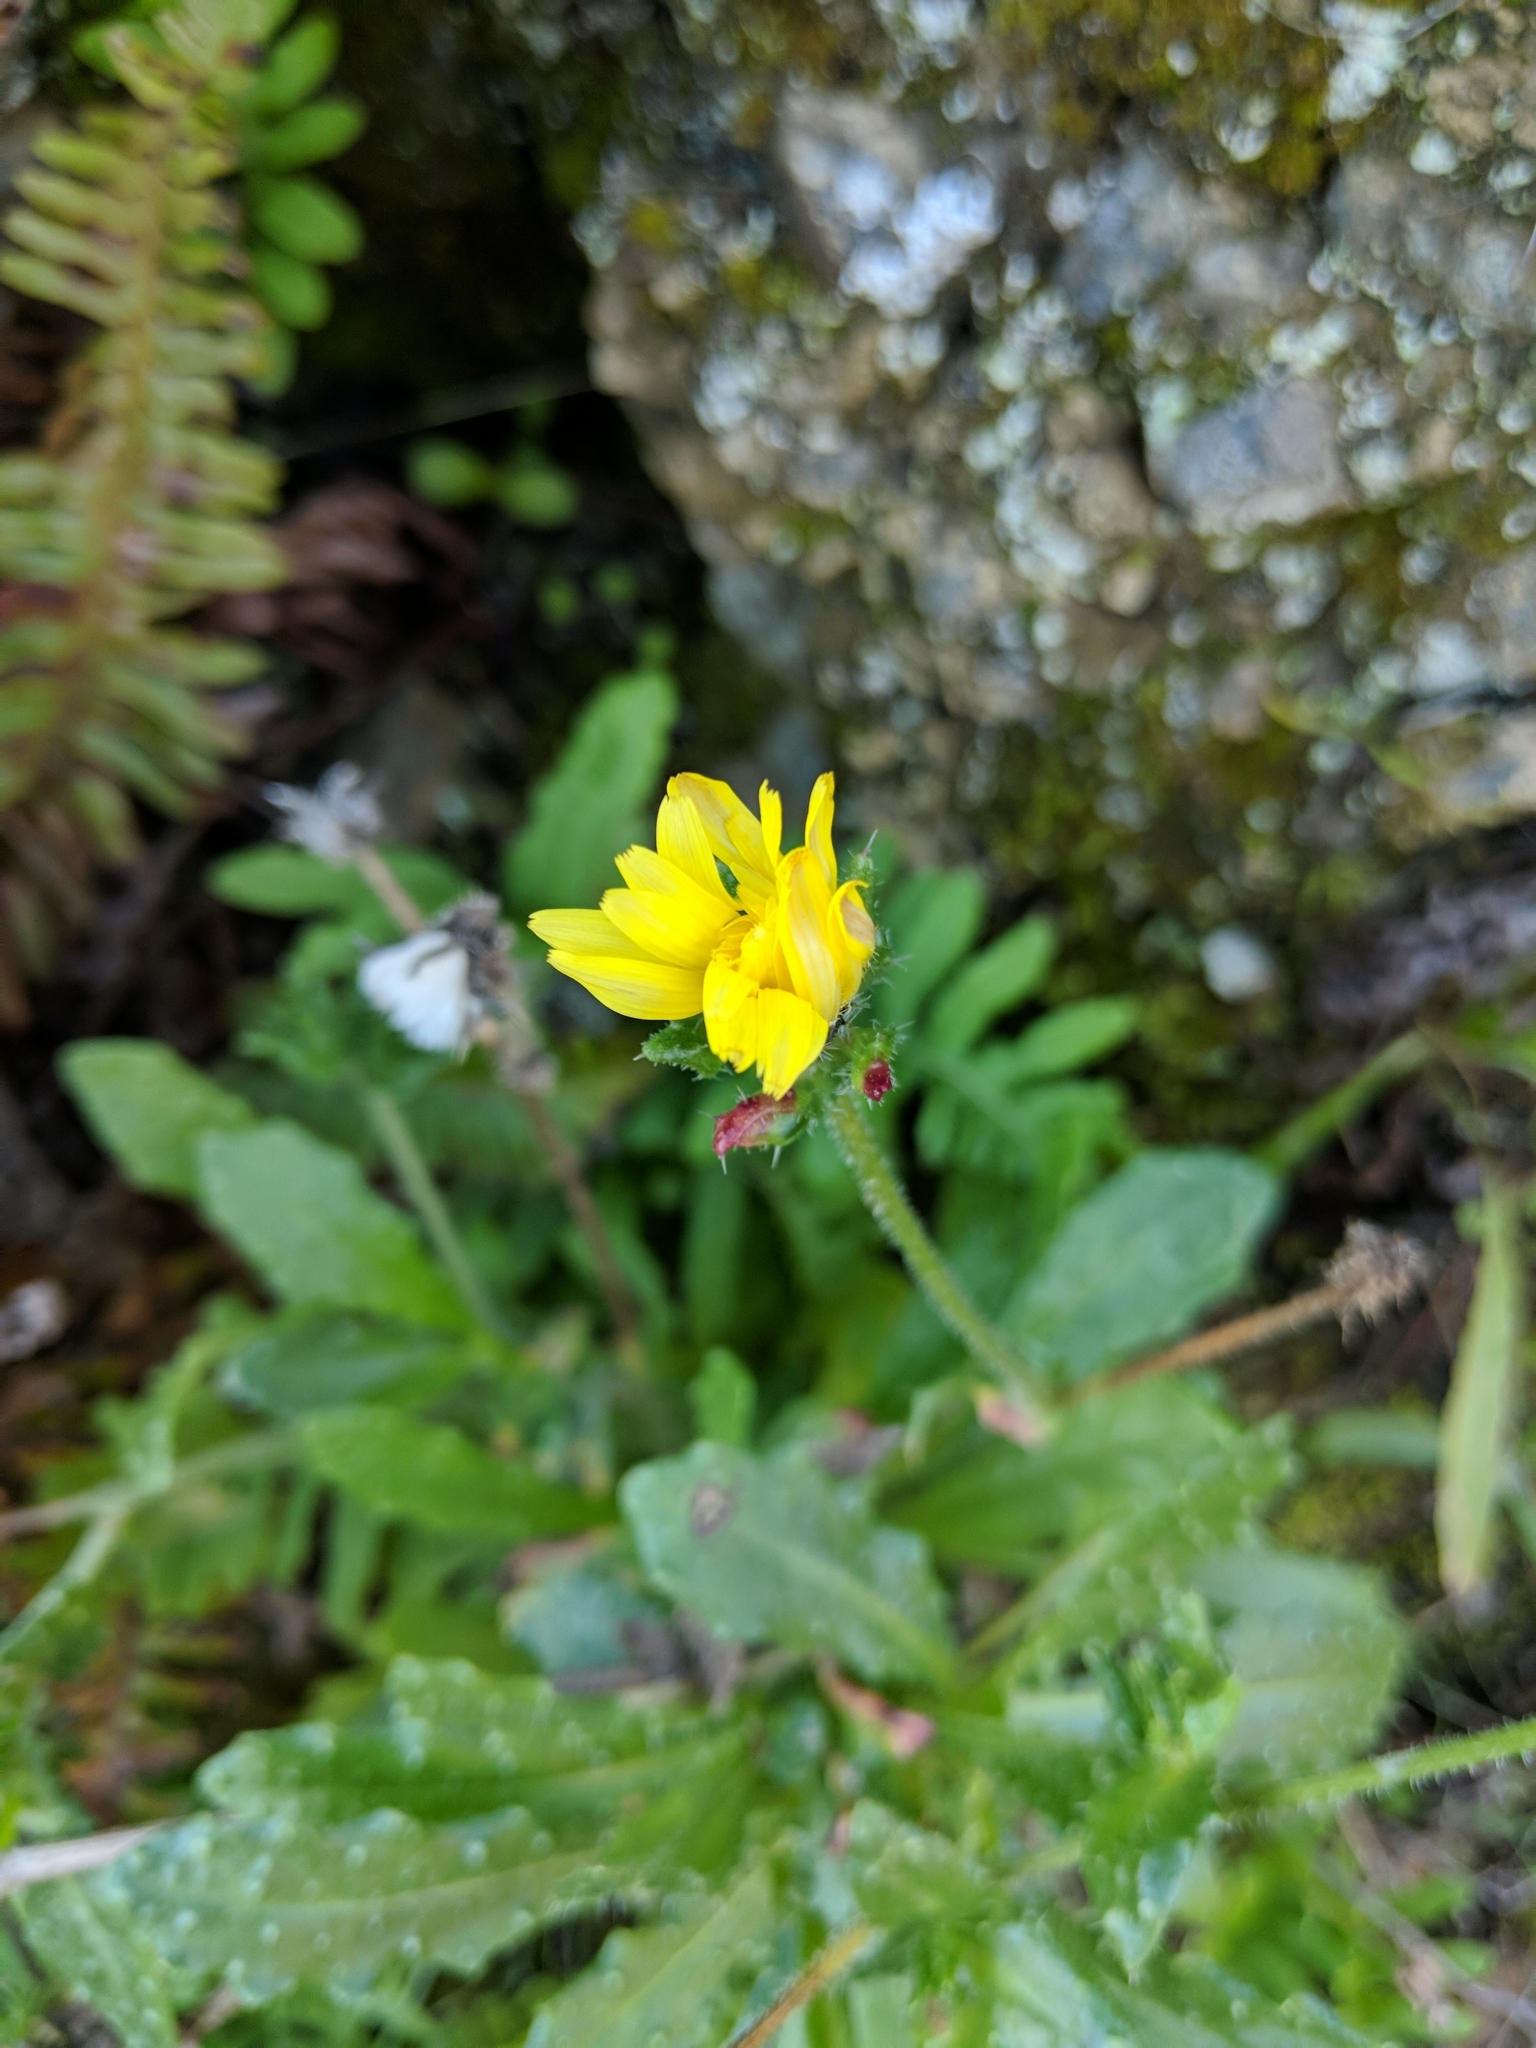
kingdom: Plantae
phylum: Tracheophyta
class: Magnoliopsida
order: Asterales
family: Asteraceae
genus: Helminthotheca
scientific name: Helminthotheca echioides
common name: Ox-tongue
